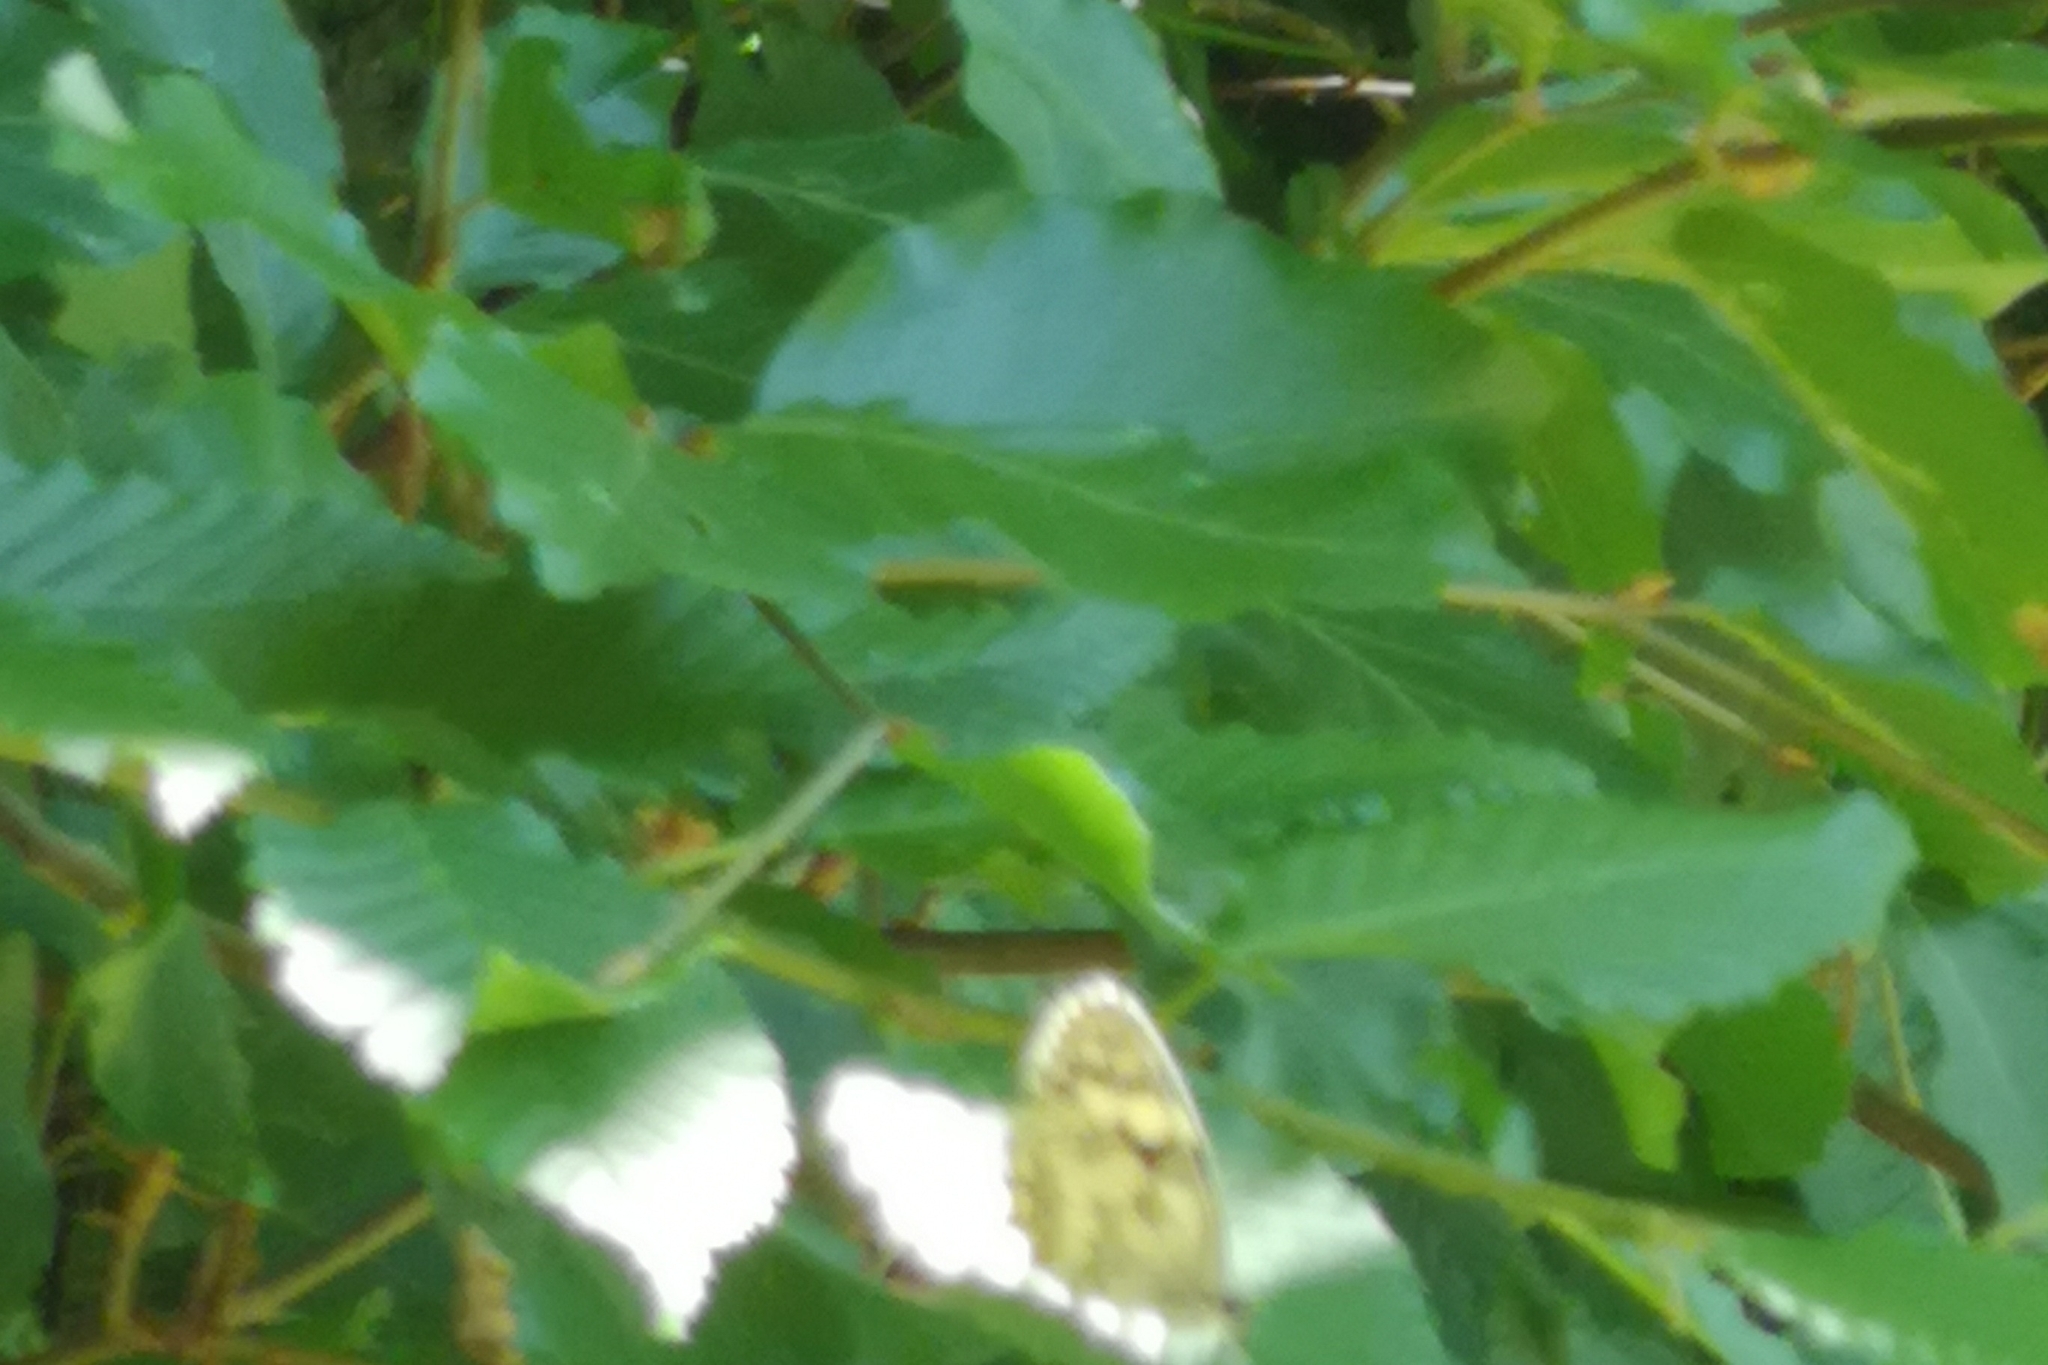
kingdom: Animalia
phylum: Arthropoda
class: Insecta
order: Lepidoptera
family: Nymphalidae
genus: Melanargia
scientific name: Melanargia galathea
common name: Marbled white
